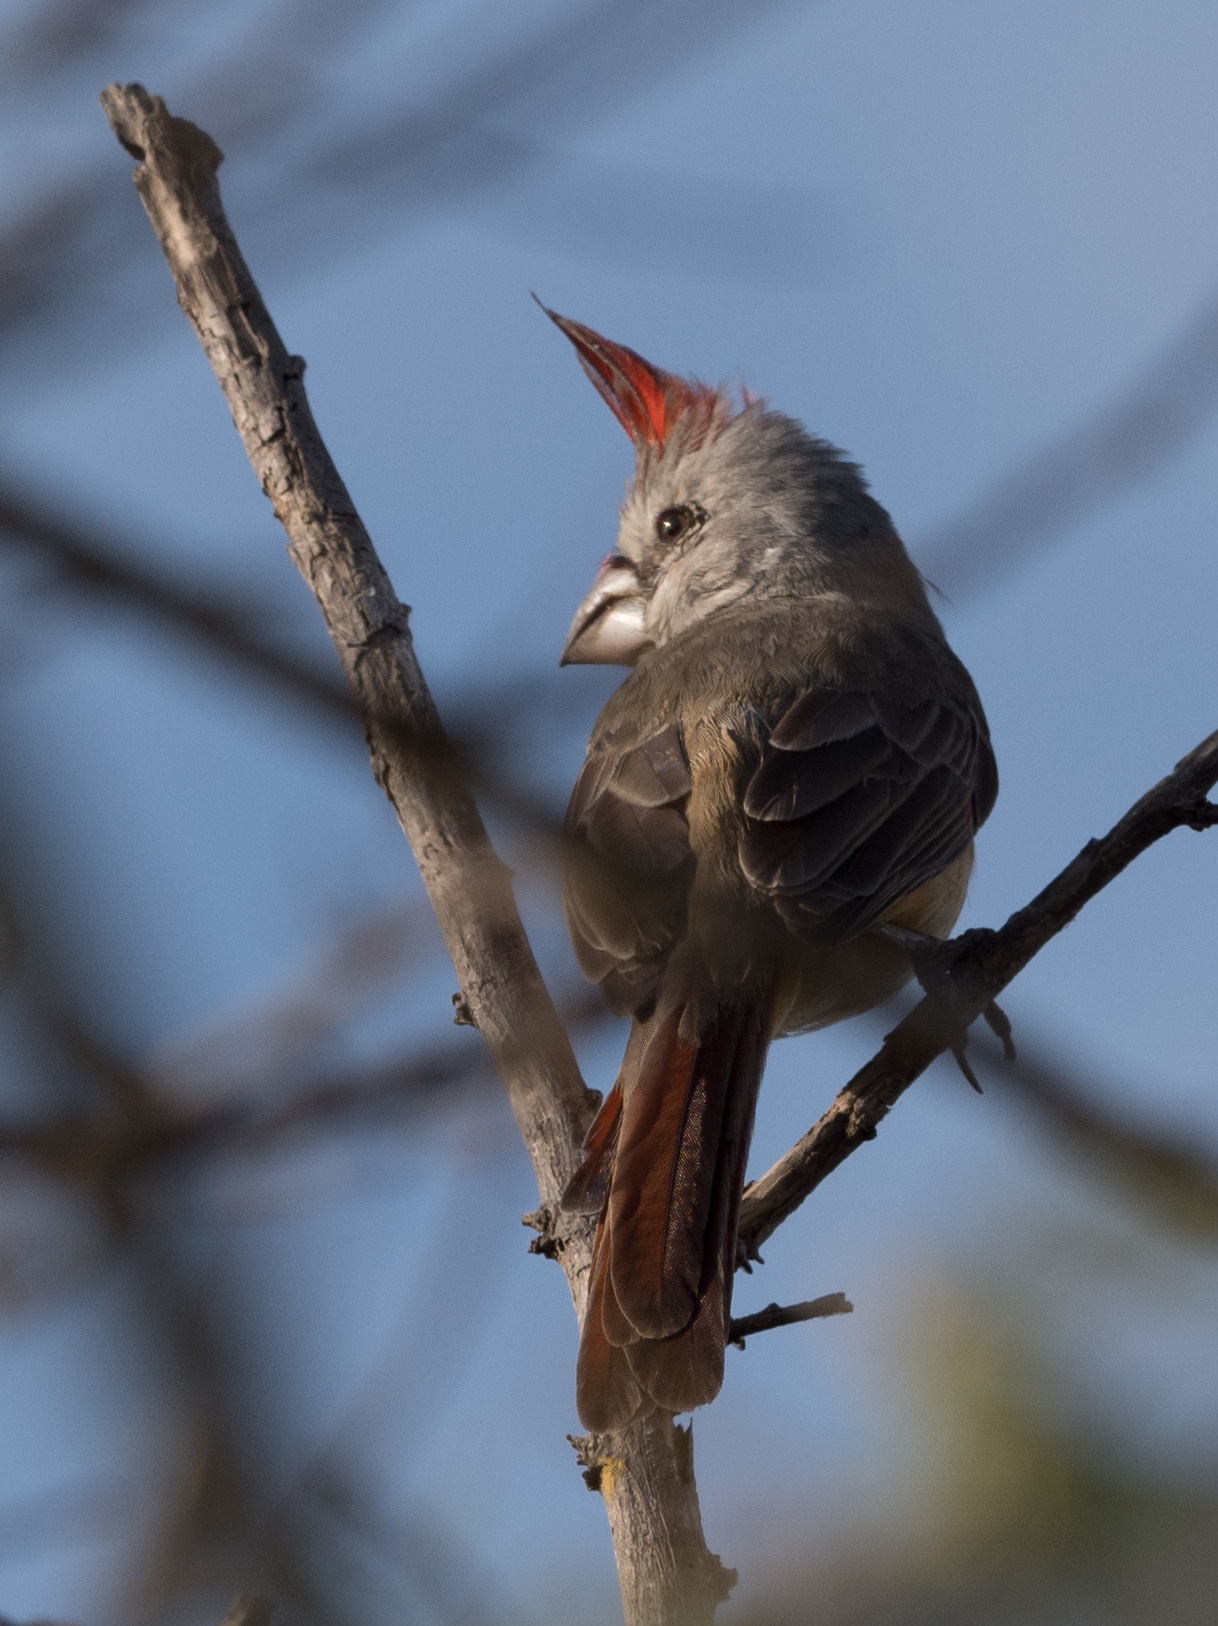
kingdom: Animalia
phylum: Chordata
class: Aves
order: Passeriformes
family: Cardinalidae
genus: Cardinalis
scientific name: Cardinalis phoeniceus
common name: Vermilion cardinal
